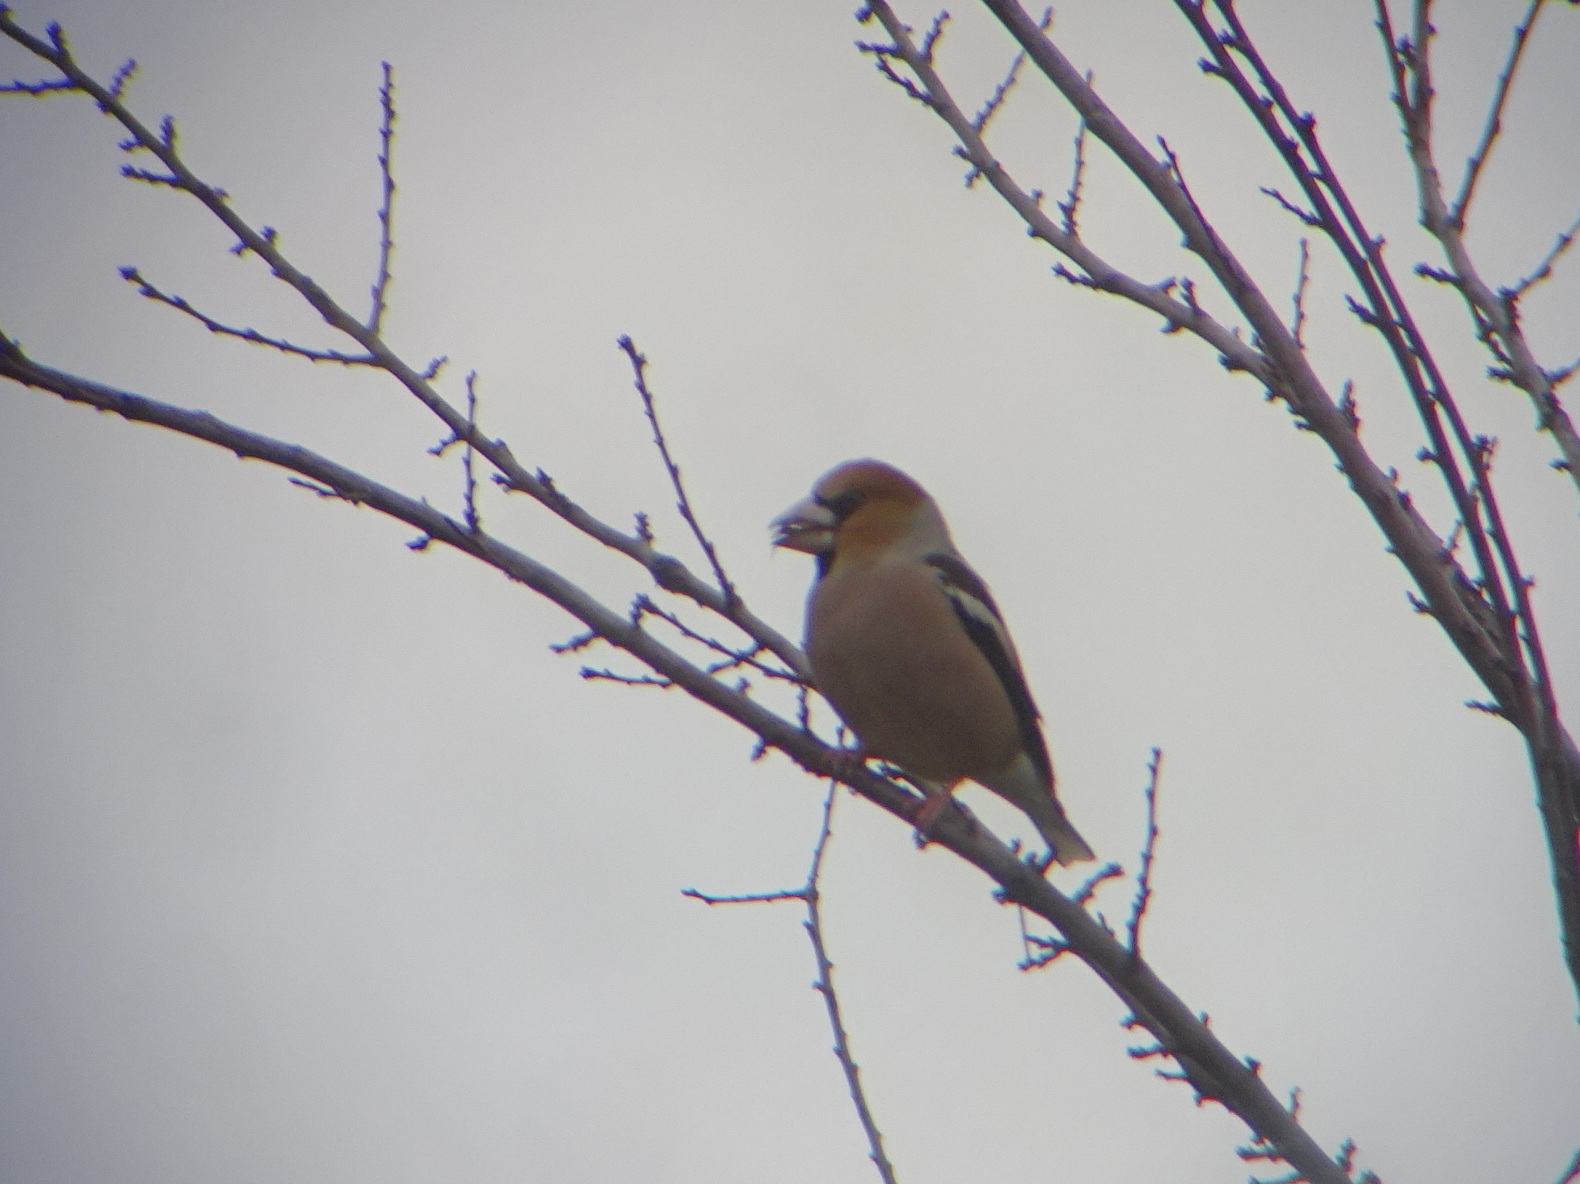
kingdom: Animalia
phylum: Chordata
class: Aves
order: Passeriformes
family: Fringillidae
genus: Coccothraustes
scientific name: Coccothraustes coccothraustes
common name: Hawfinch
